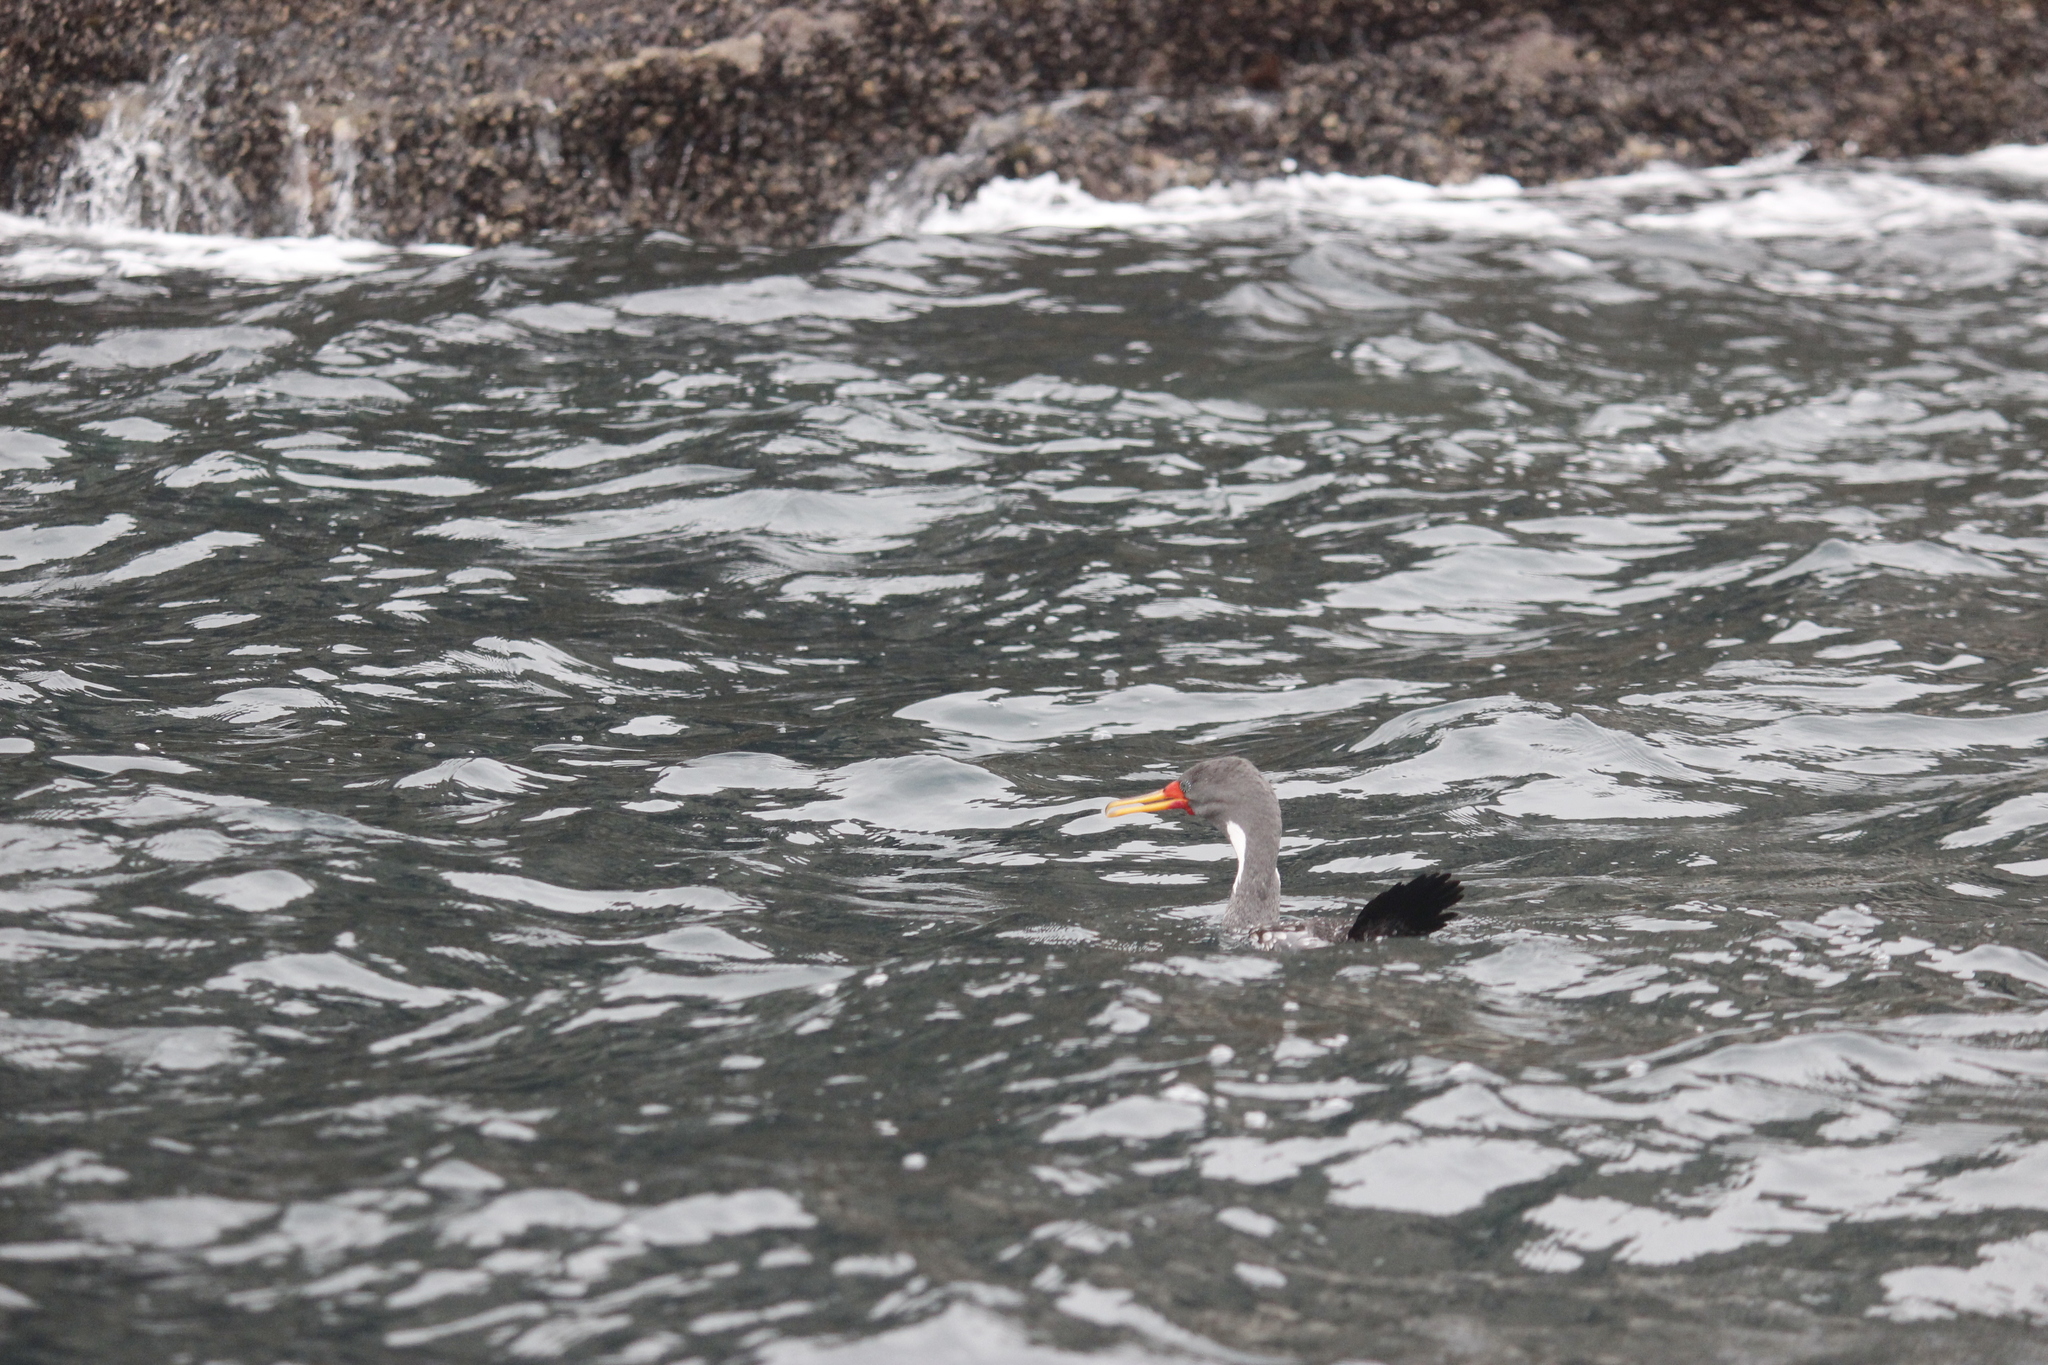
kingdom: Animalia
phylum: Chordata
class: Aves
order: Suliformes
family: Phalacrocoracidae
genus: Phalacrocorax
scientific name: Phalacrocorax gaimardi
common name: Red-legged cormorant
